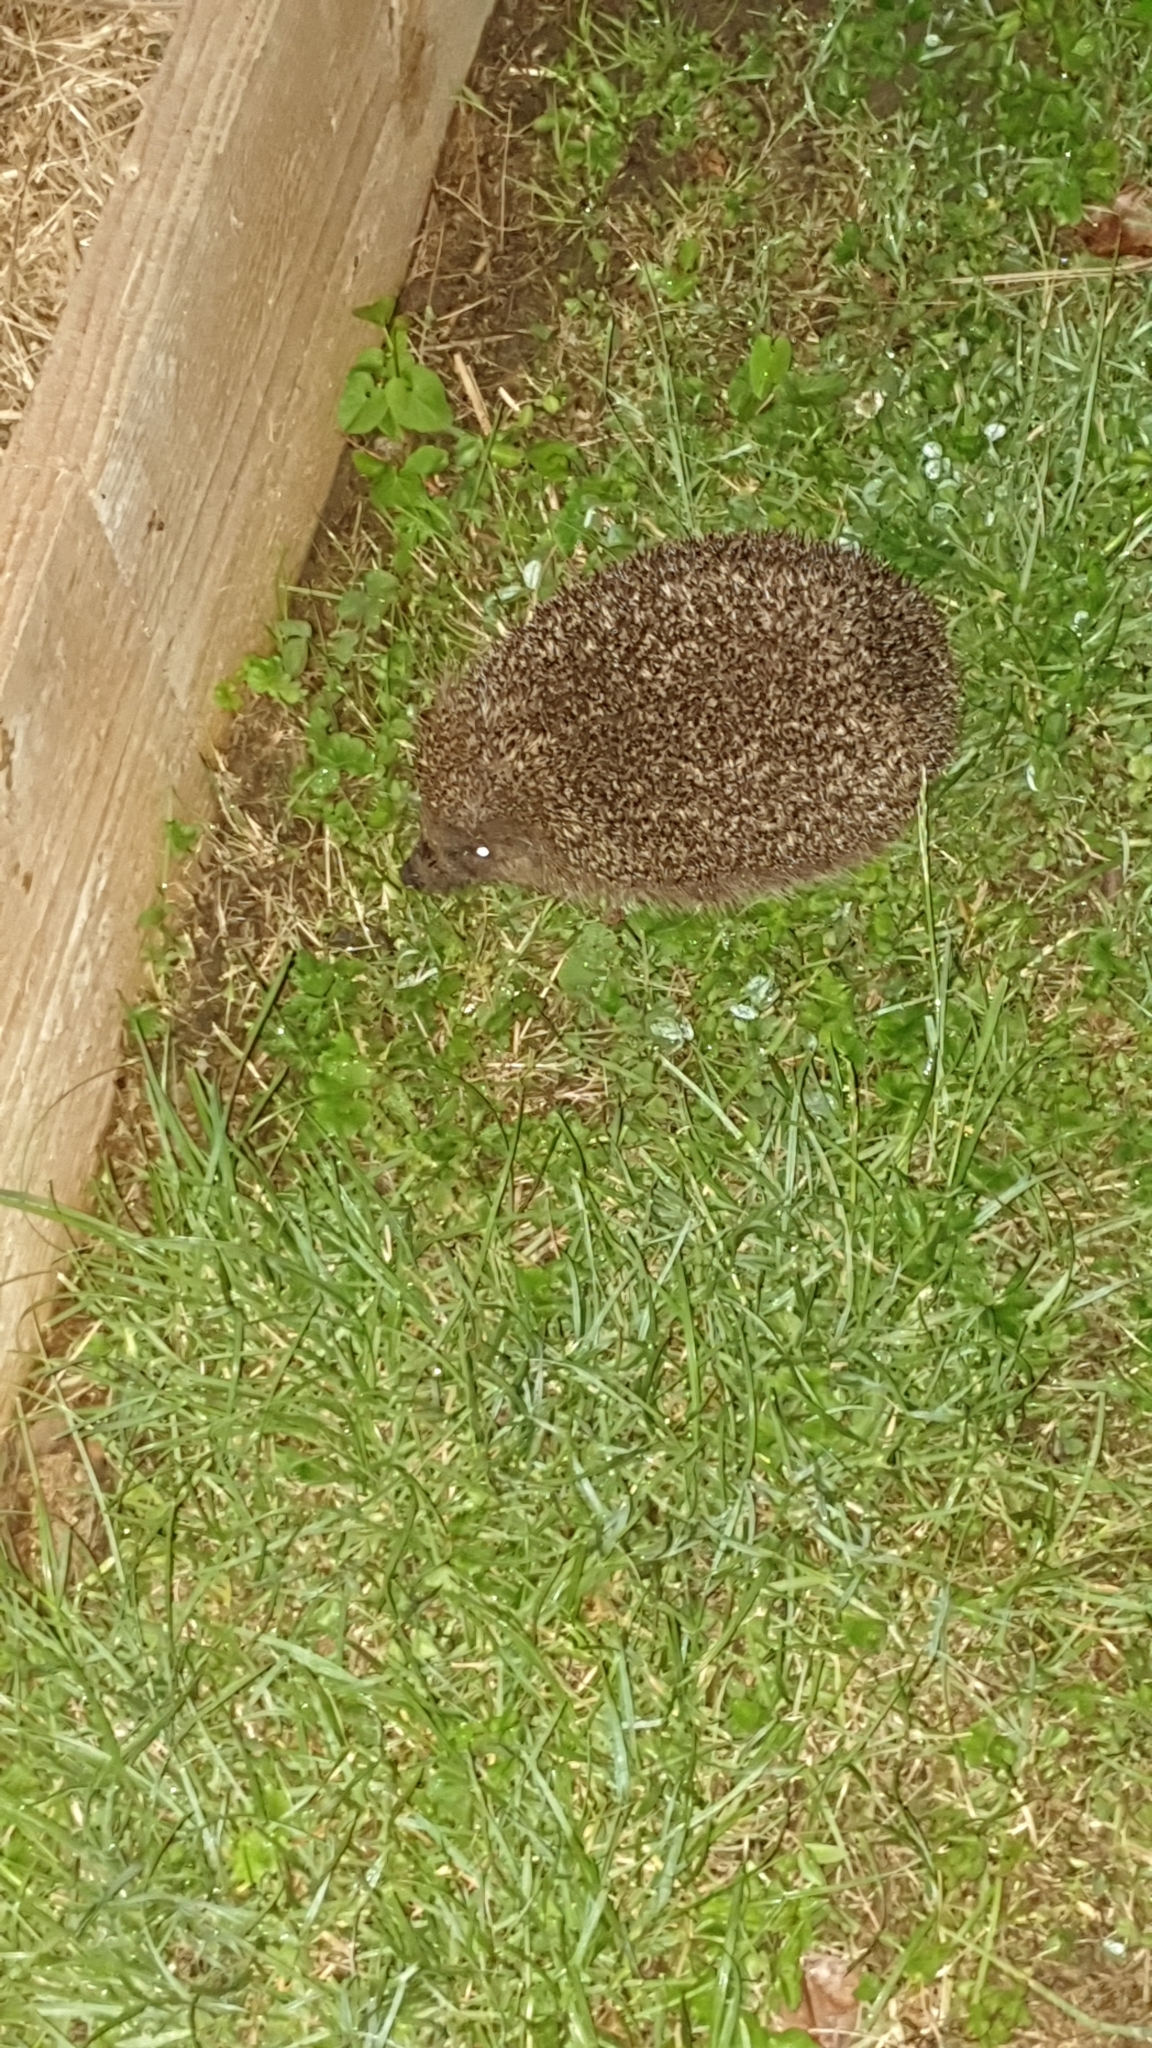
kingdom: Animalia
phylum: Chordata
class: Mammalia
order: Erinaceomorpha
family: Erinaceidae
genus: Erinaceus
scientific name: Erinaceus europaeus
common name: West european hedgehog
